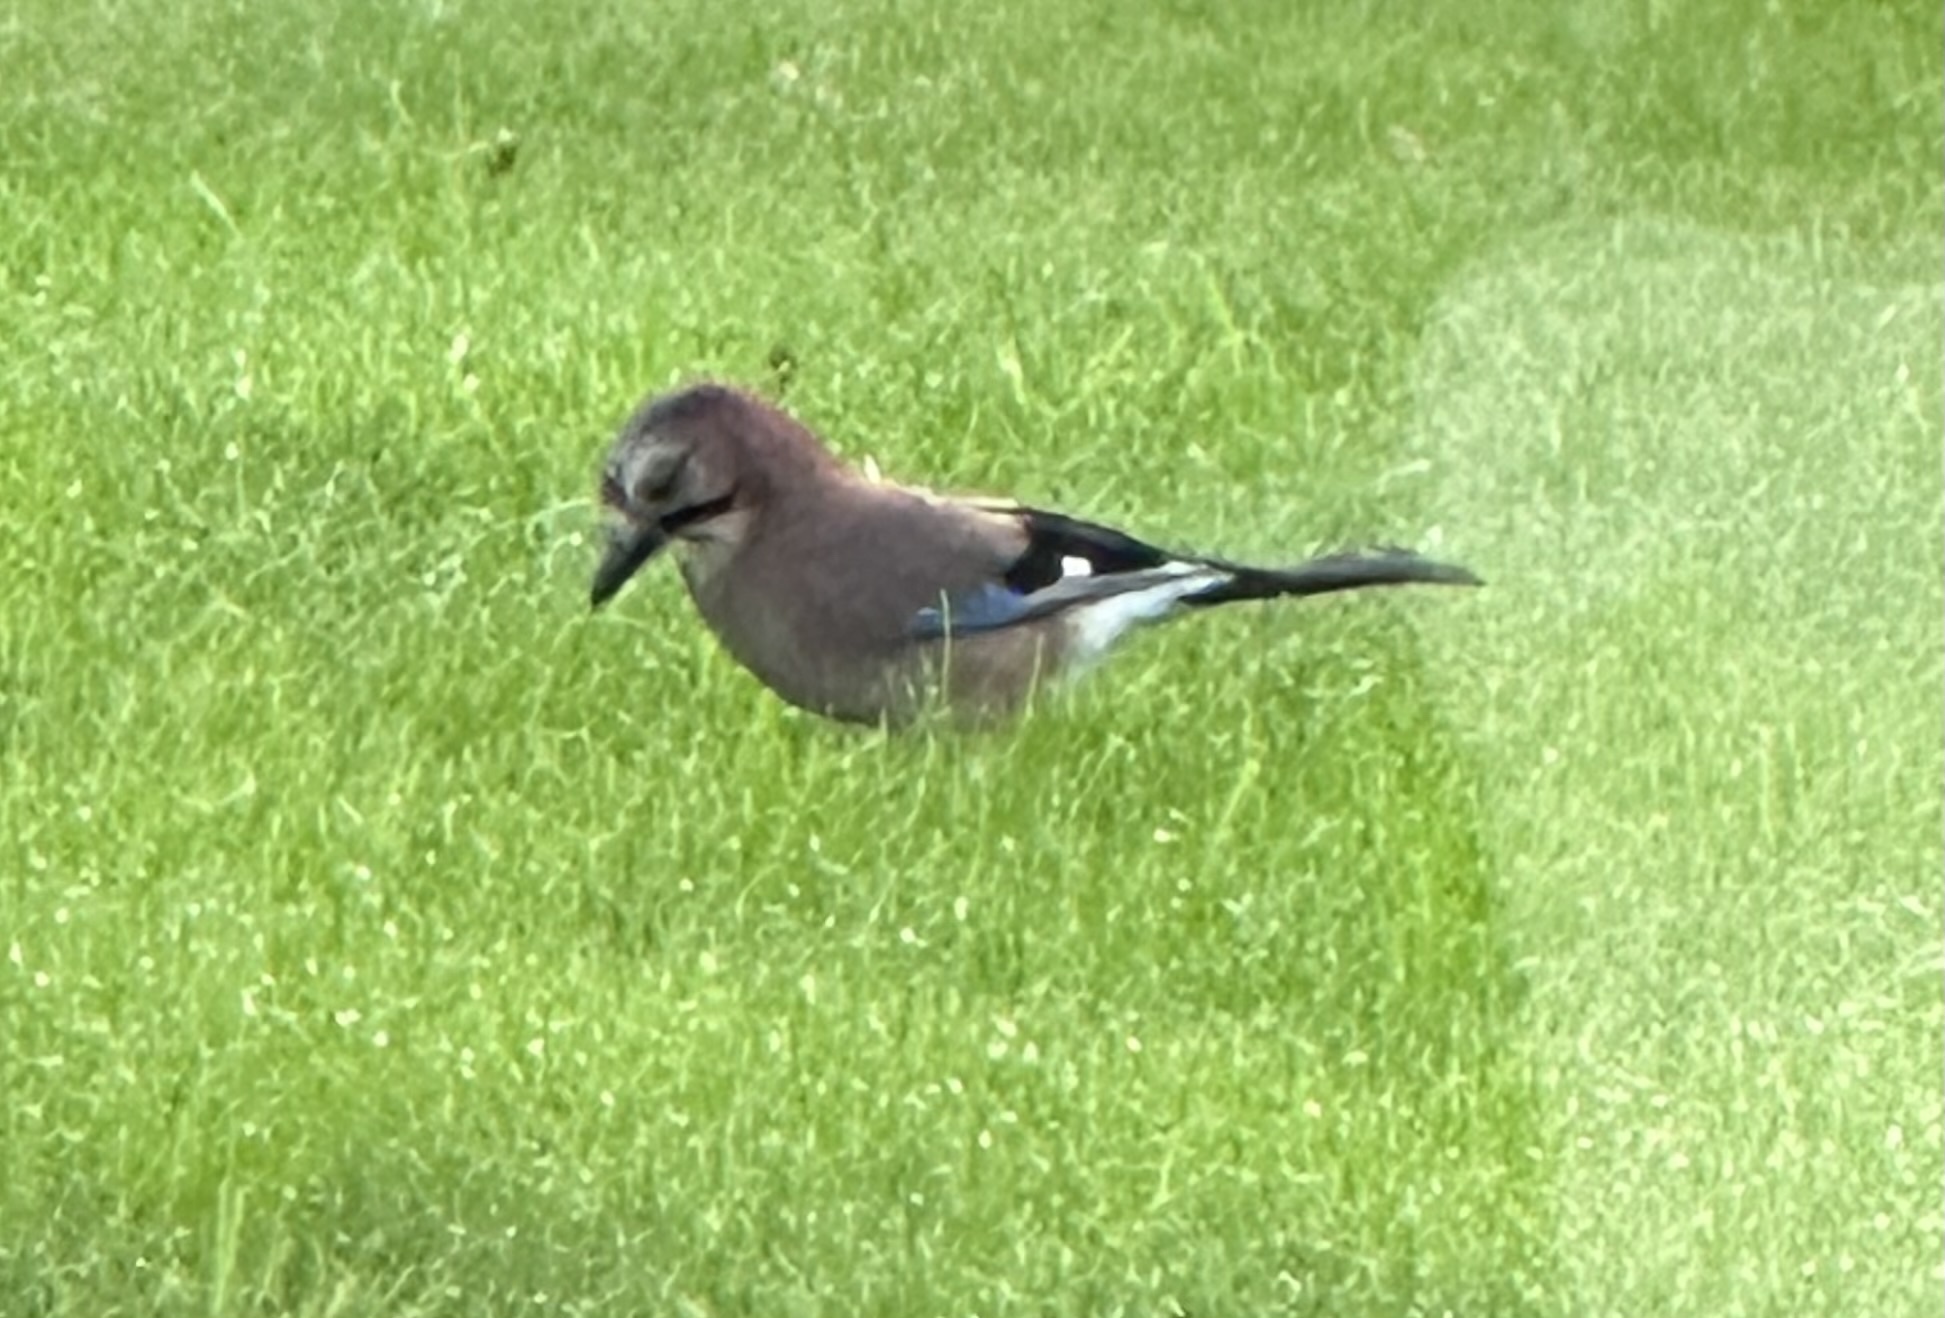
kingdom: Animalia
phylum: Chordata
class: Aves
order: Passeriformes
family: Corvidae
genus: Garrulus
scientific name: Garrulus glandarius
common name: Eurasian jay
